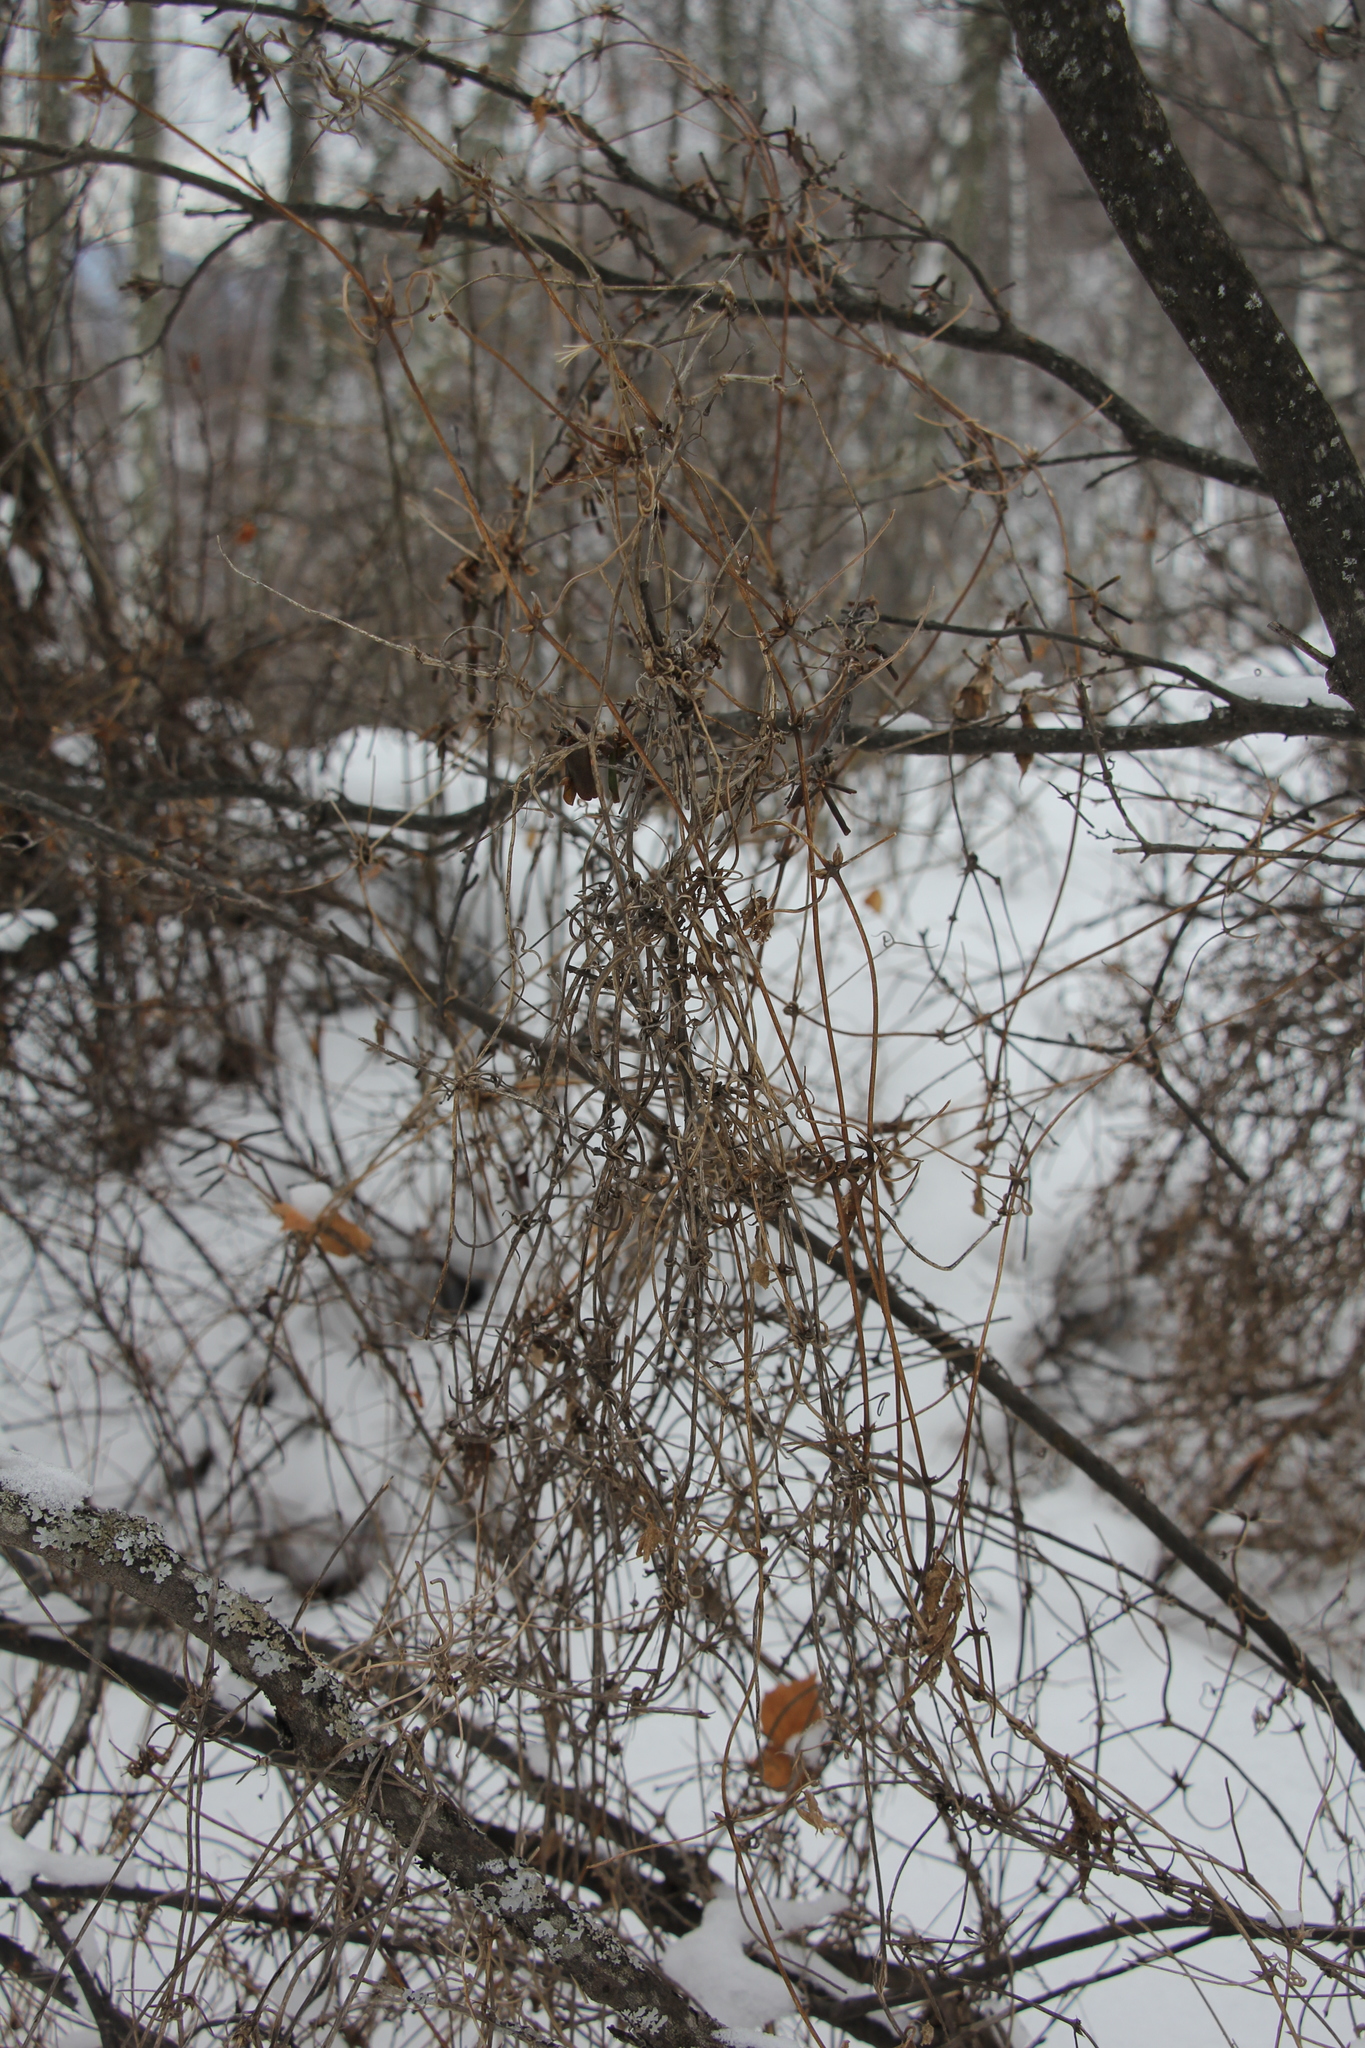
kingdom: Plantae
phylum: Tracheophyta
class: Magnoliopsida
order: Ranunculales
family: Ranunculaceae
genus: Clematis
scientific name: Clematis sibirica
